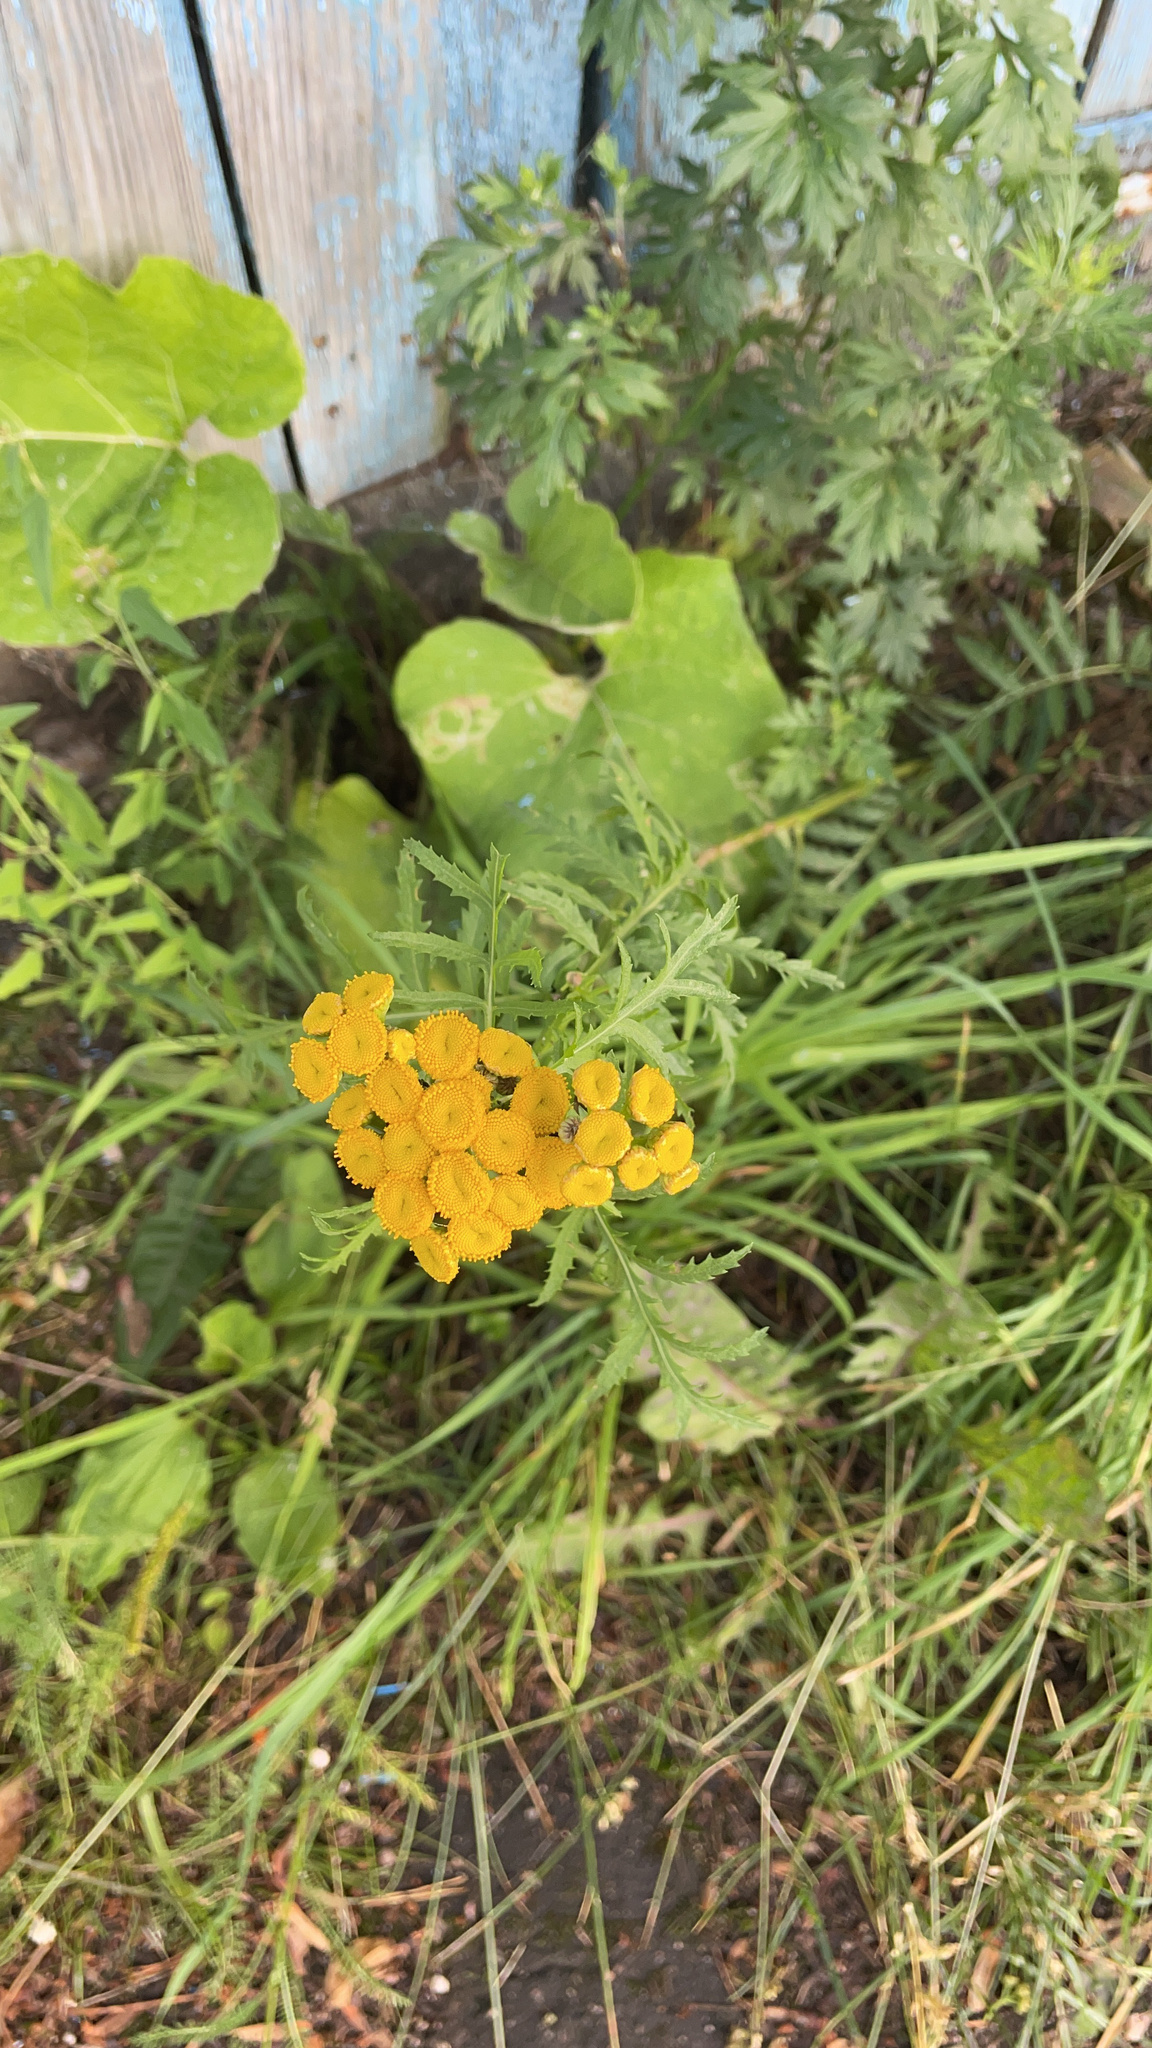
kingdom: Plantae
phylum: Tracheophyta
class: Magnoliopsida
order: Asterales
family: Asteraceae
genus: Tanacetum
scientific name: Tanacetum vulgare
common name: Common tansy
